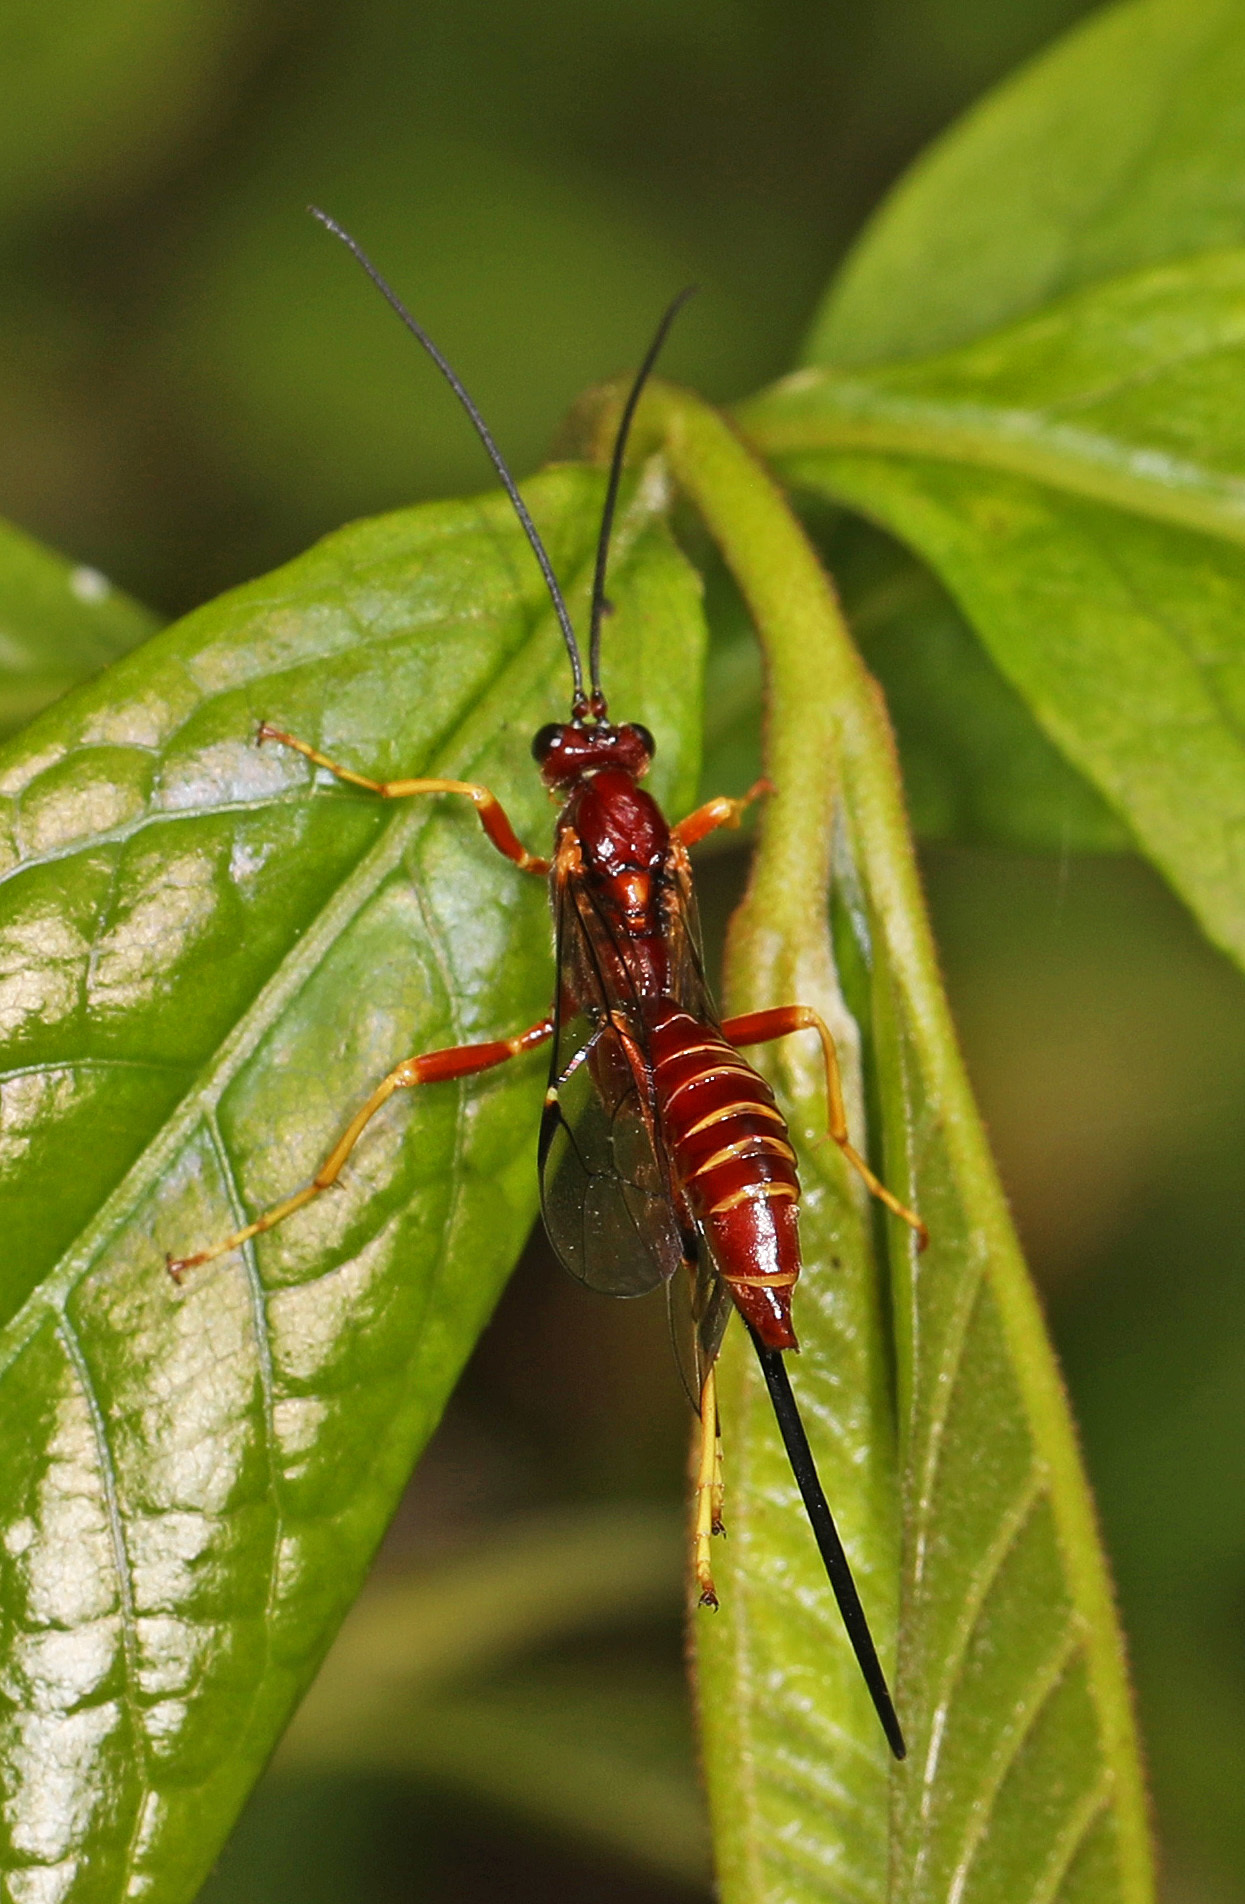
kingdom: Animalia
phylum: Arthropoda
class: Insecta
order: Hymenoptera
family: Ichneumonidae
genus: Coleocentrus
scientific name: Coleocentrus rufus
